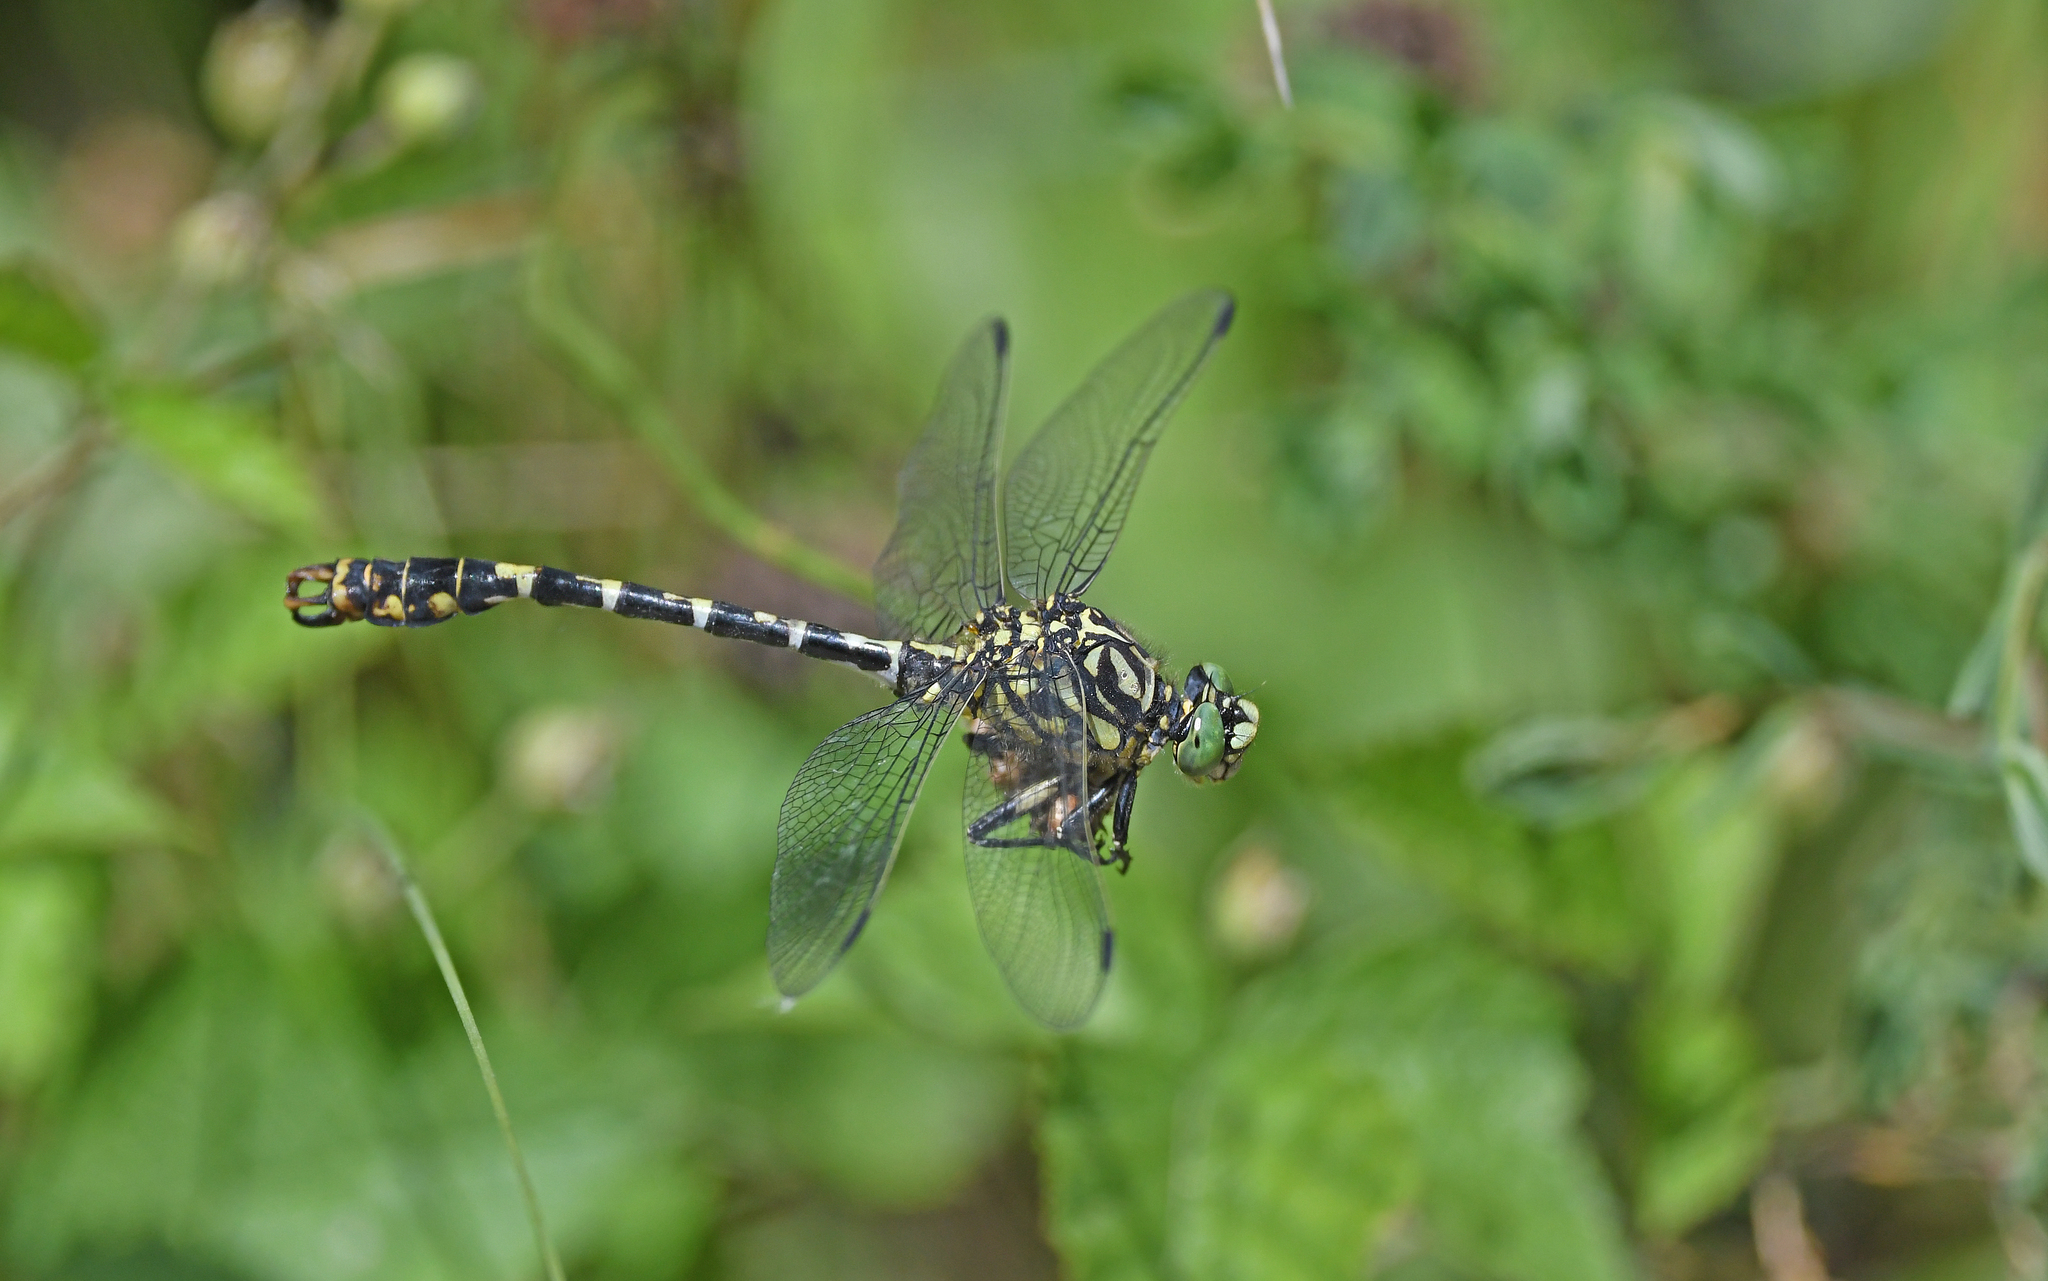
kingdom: Animalia
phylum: Arthropoda
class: Insecta
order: Odonata
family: Gomphidae
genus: Onychogomphus
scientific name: Onychogomphus forcipatus
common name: Small pincertail
